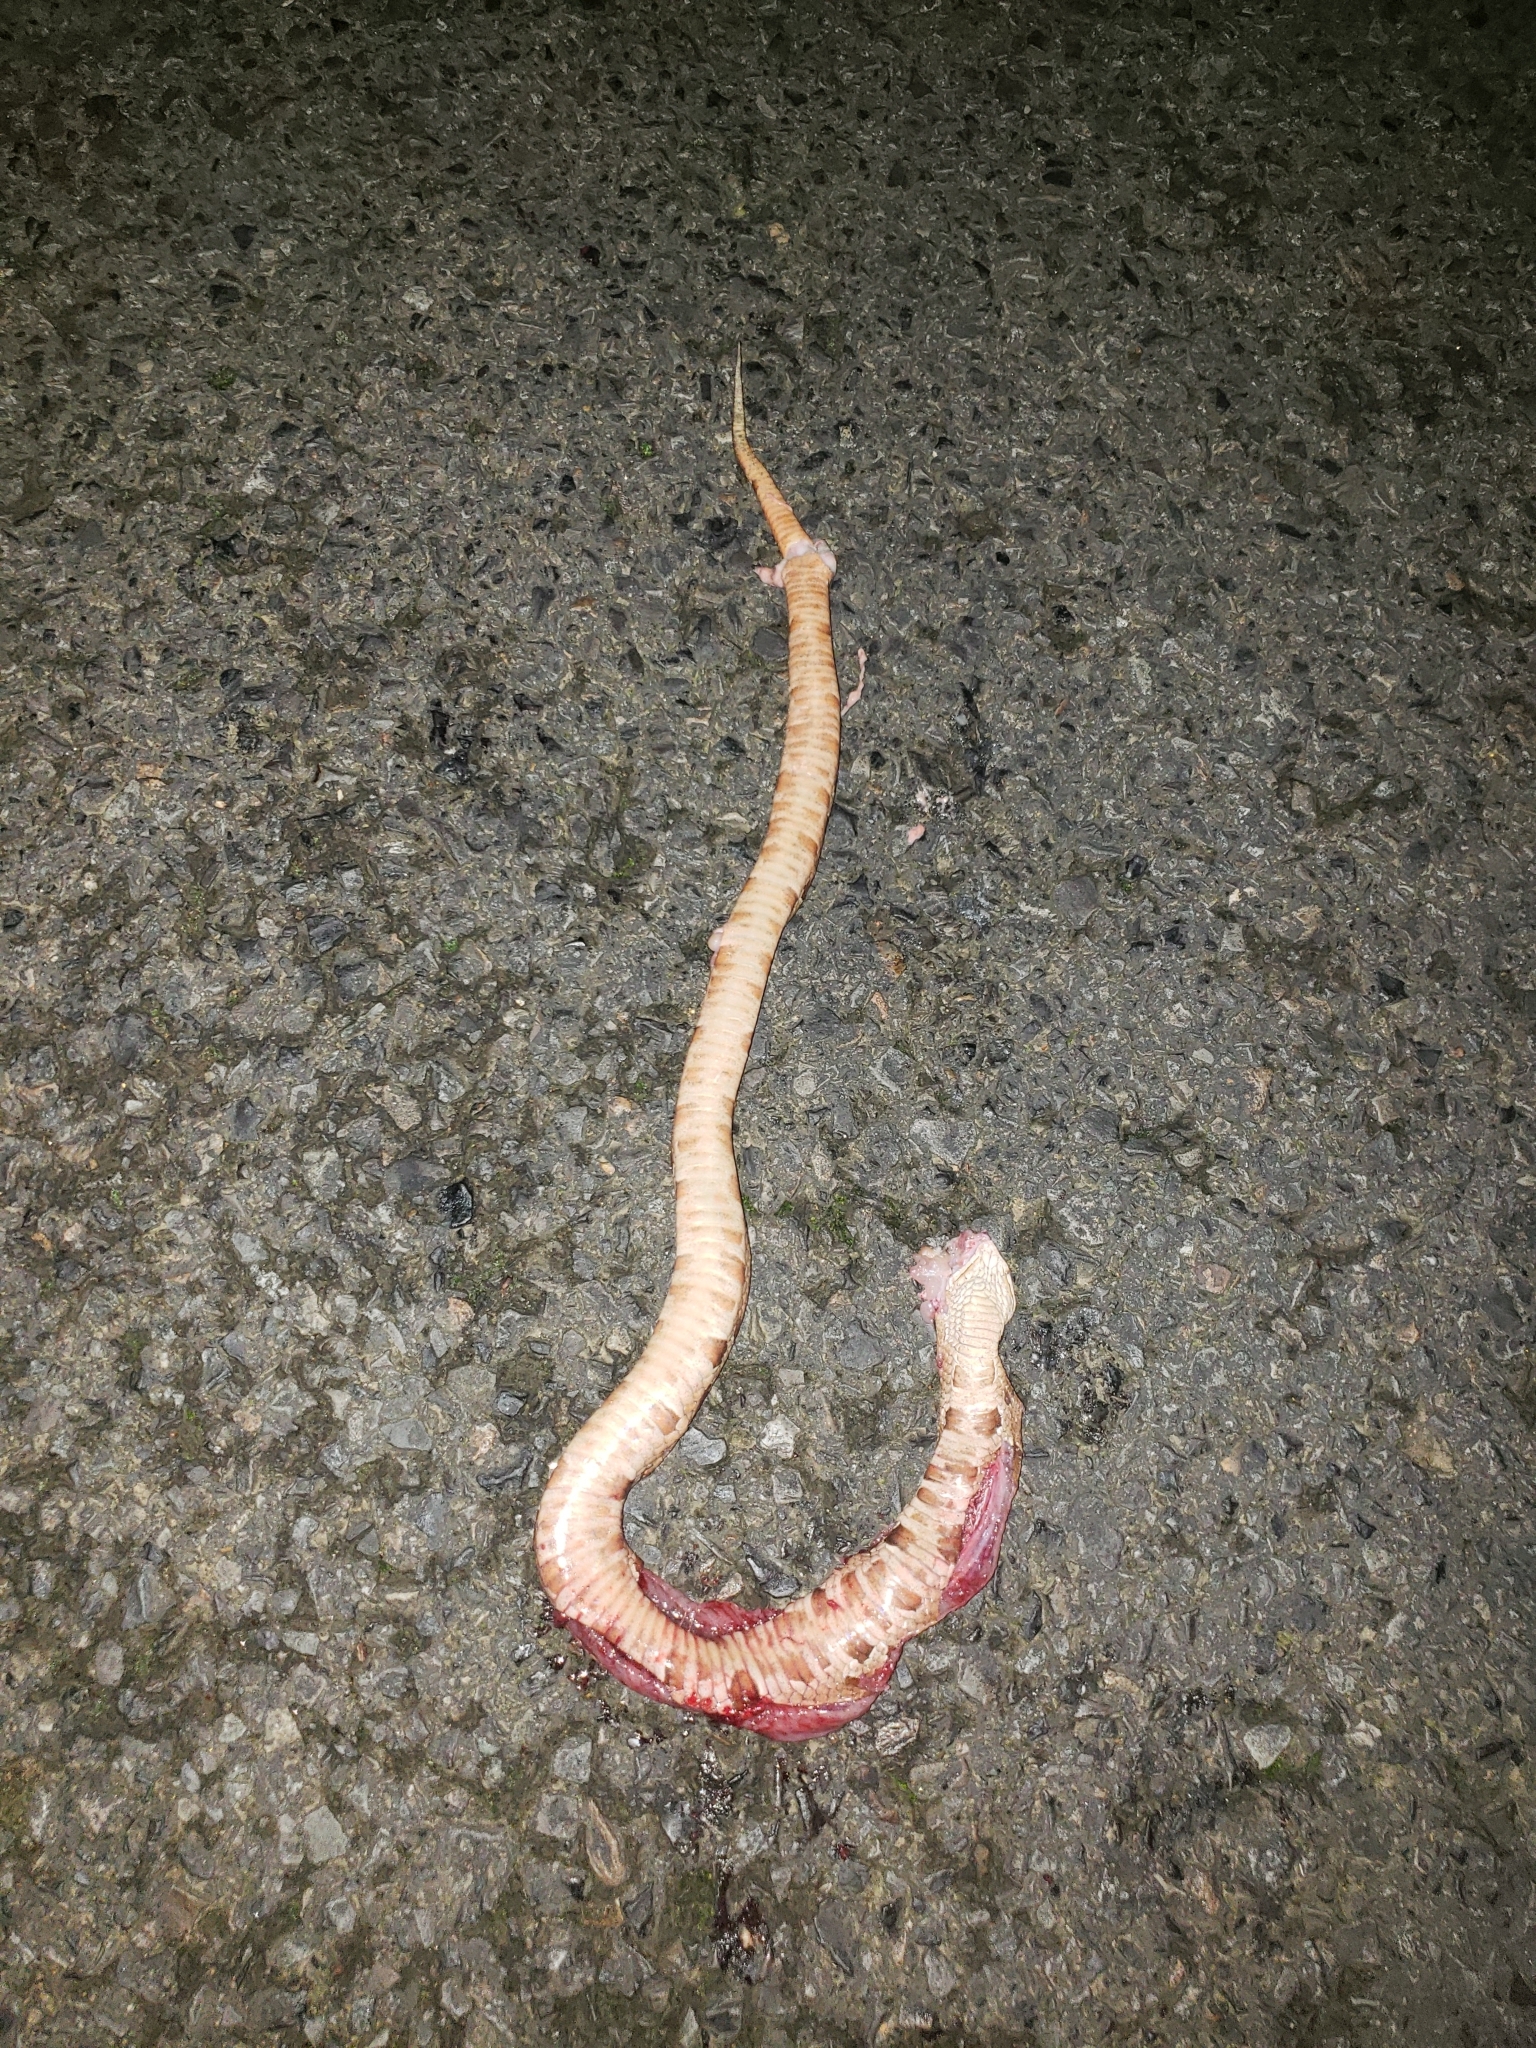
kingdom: Animalia
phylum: Chordata
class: Squamata
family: Viperidae
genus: Agkistrodon
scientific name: Agkistrodon contortrix
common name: Northern copperhead
